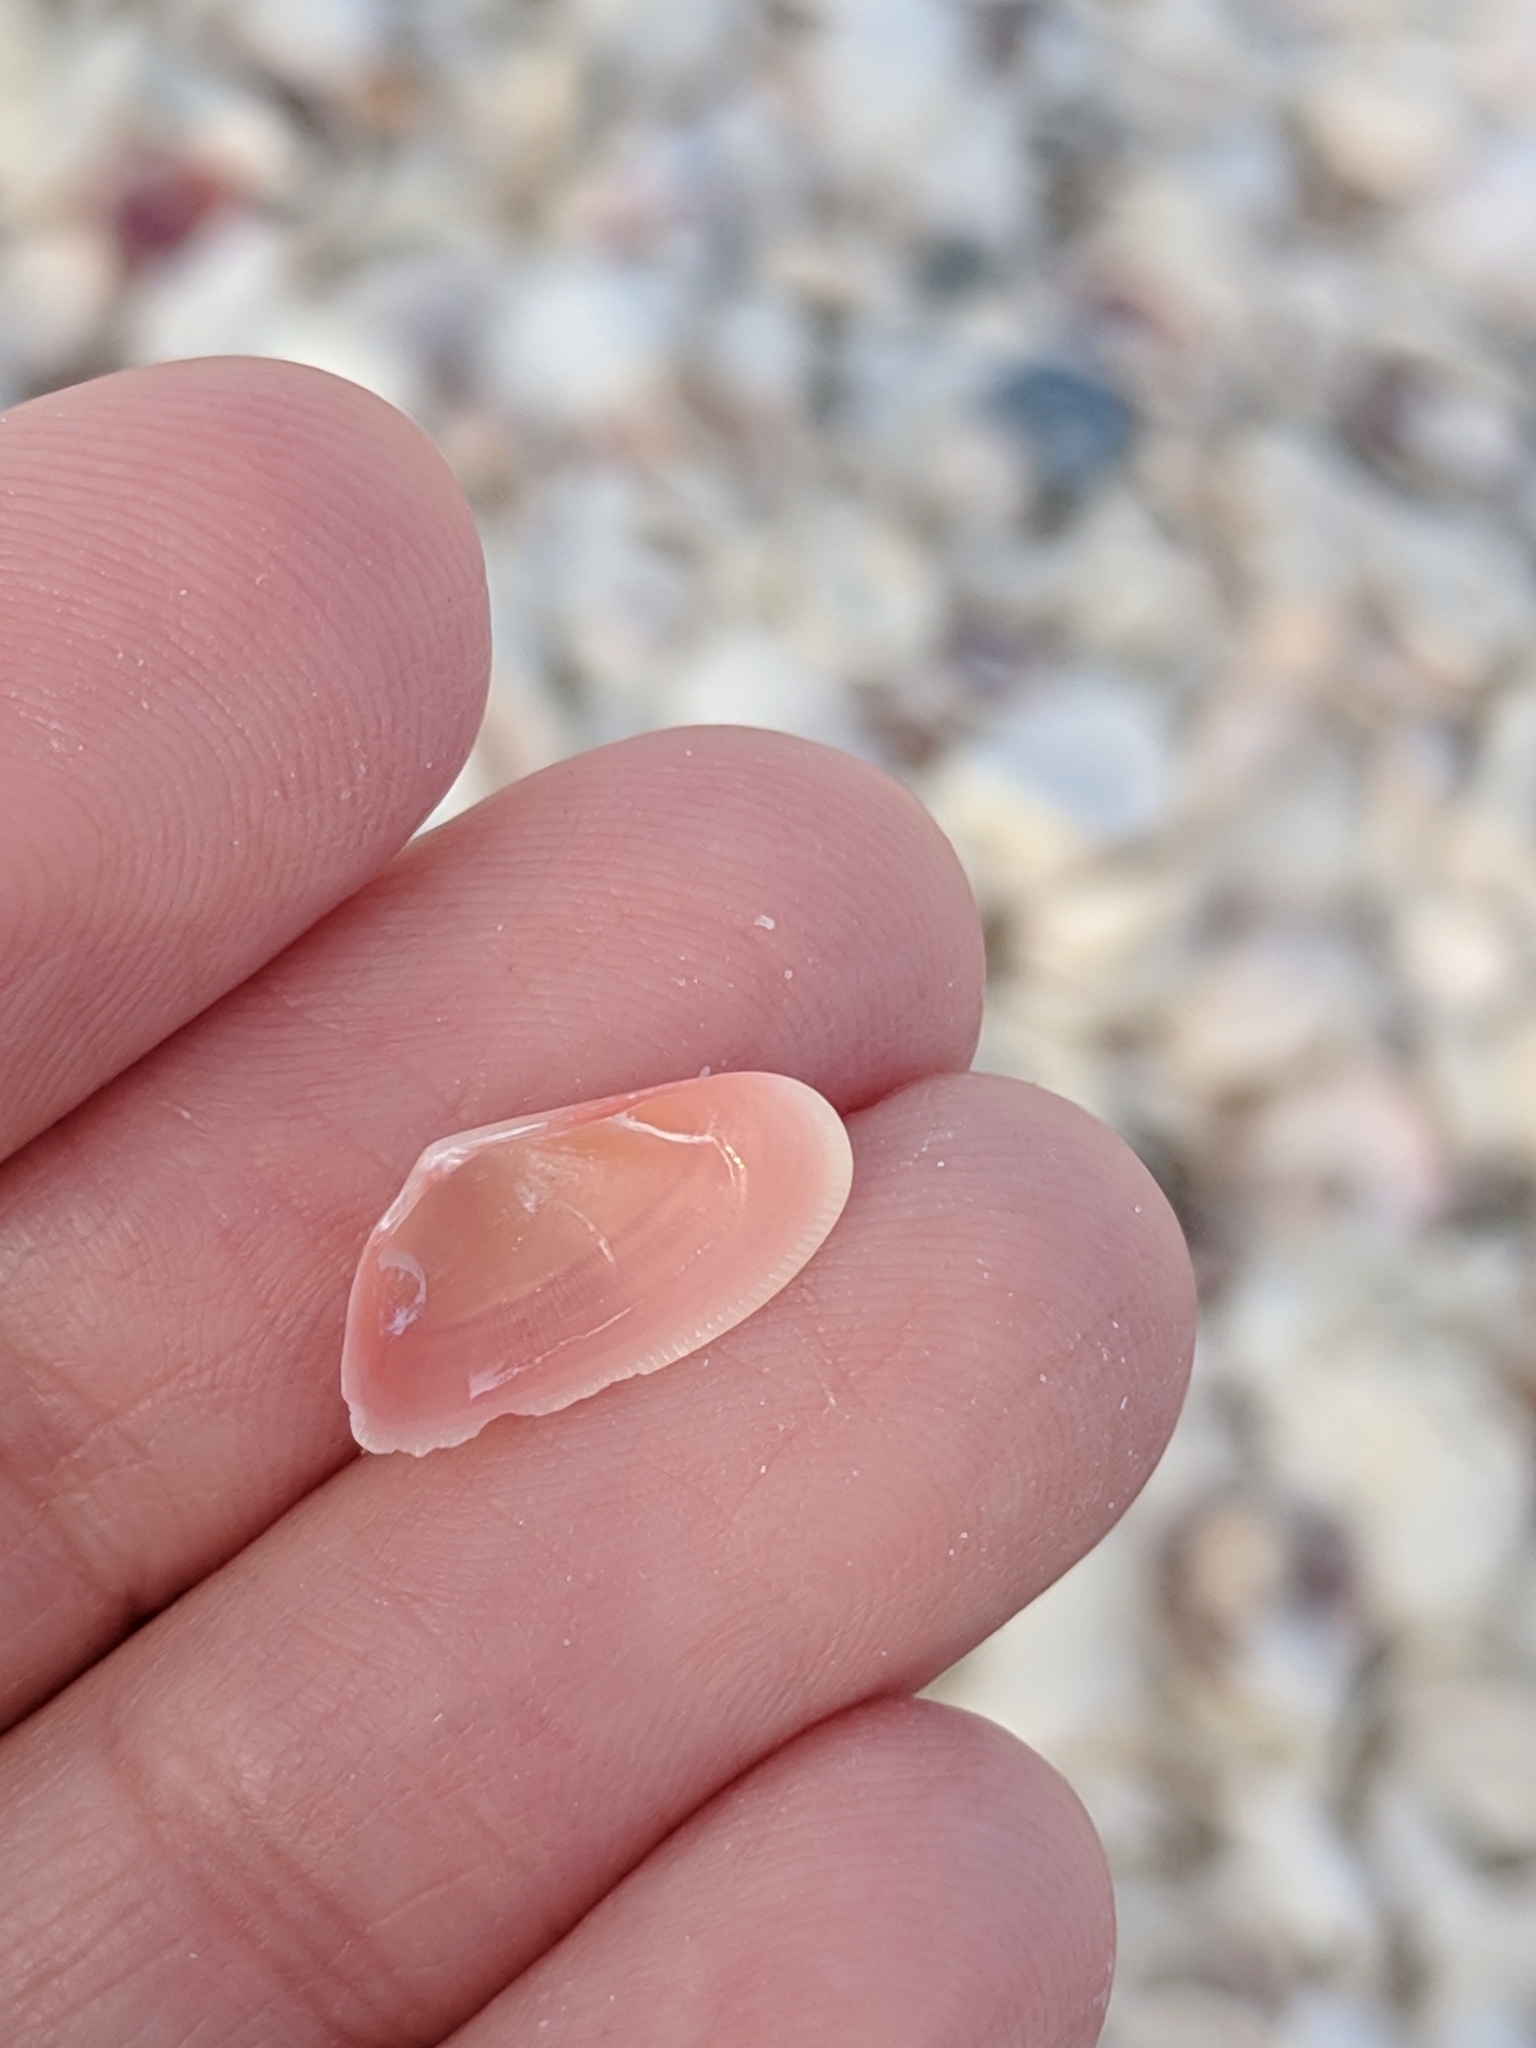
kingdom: Animalia
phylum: Mollusca
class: Bivalvia
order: Cardiida
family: Donacidae
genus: Donax
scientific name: Donax variabilis
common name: Butterfly shell
